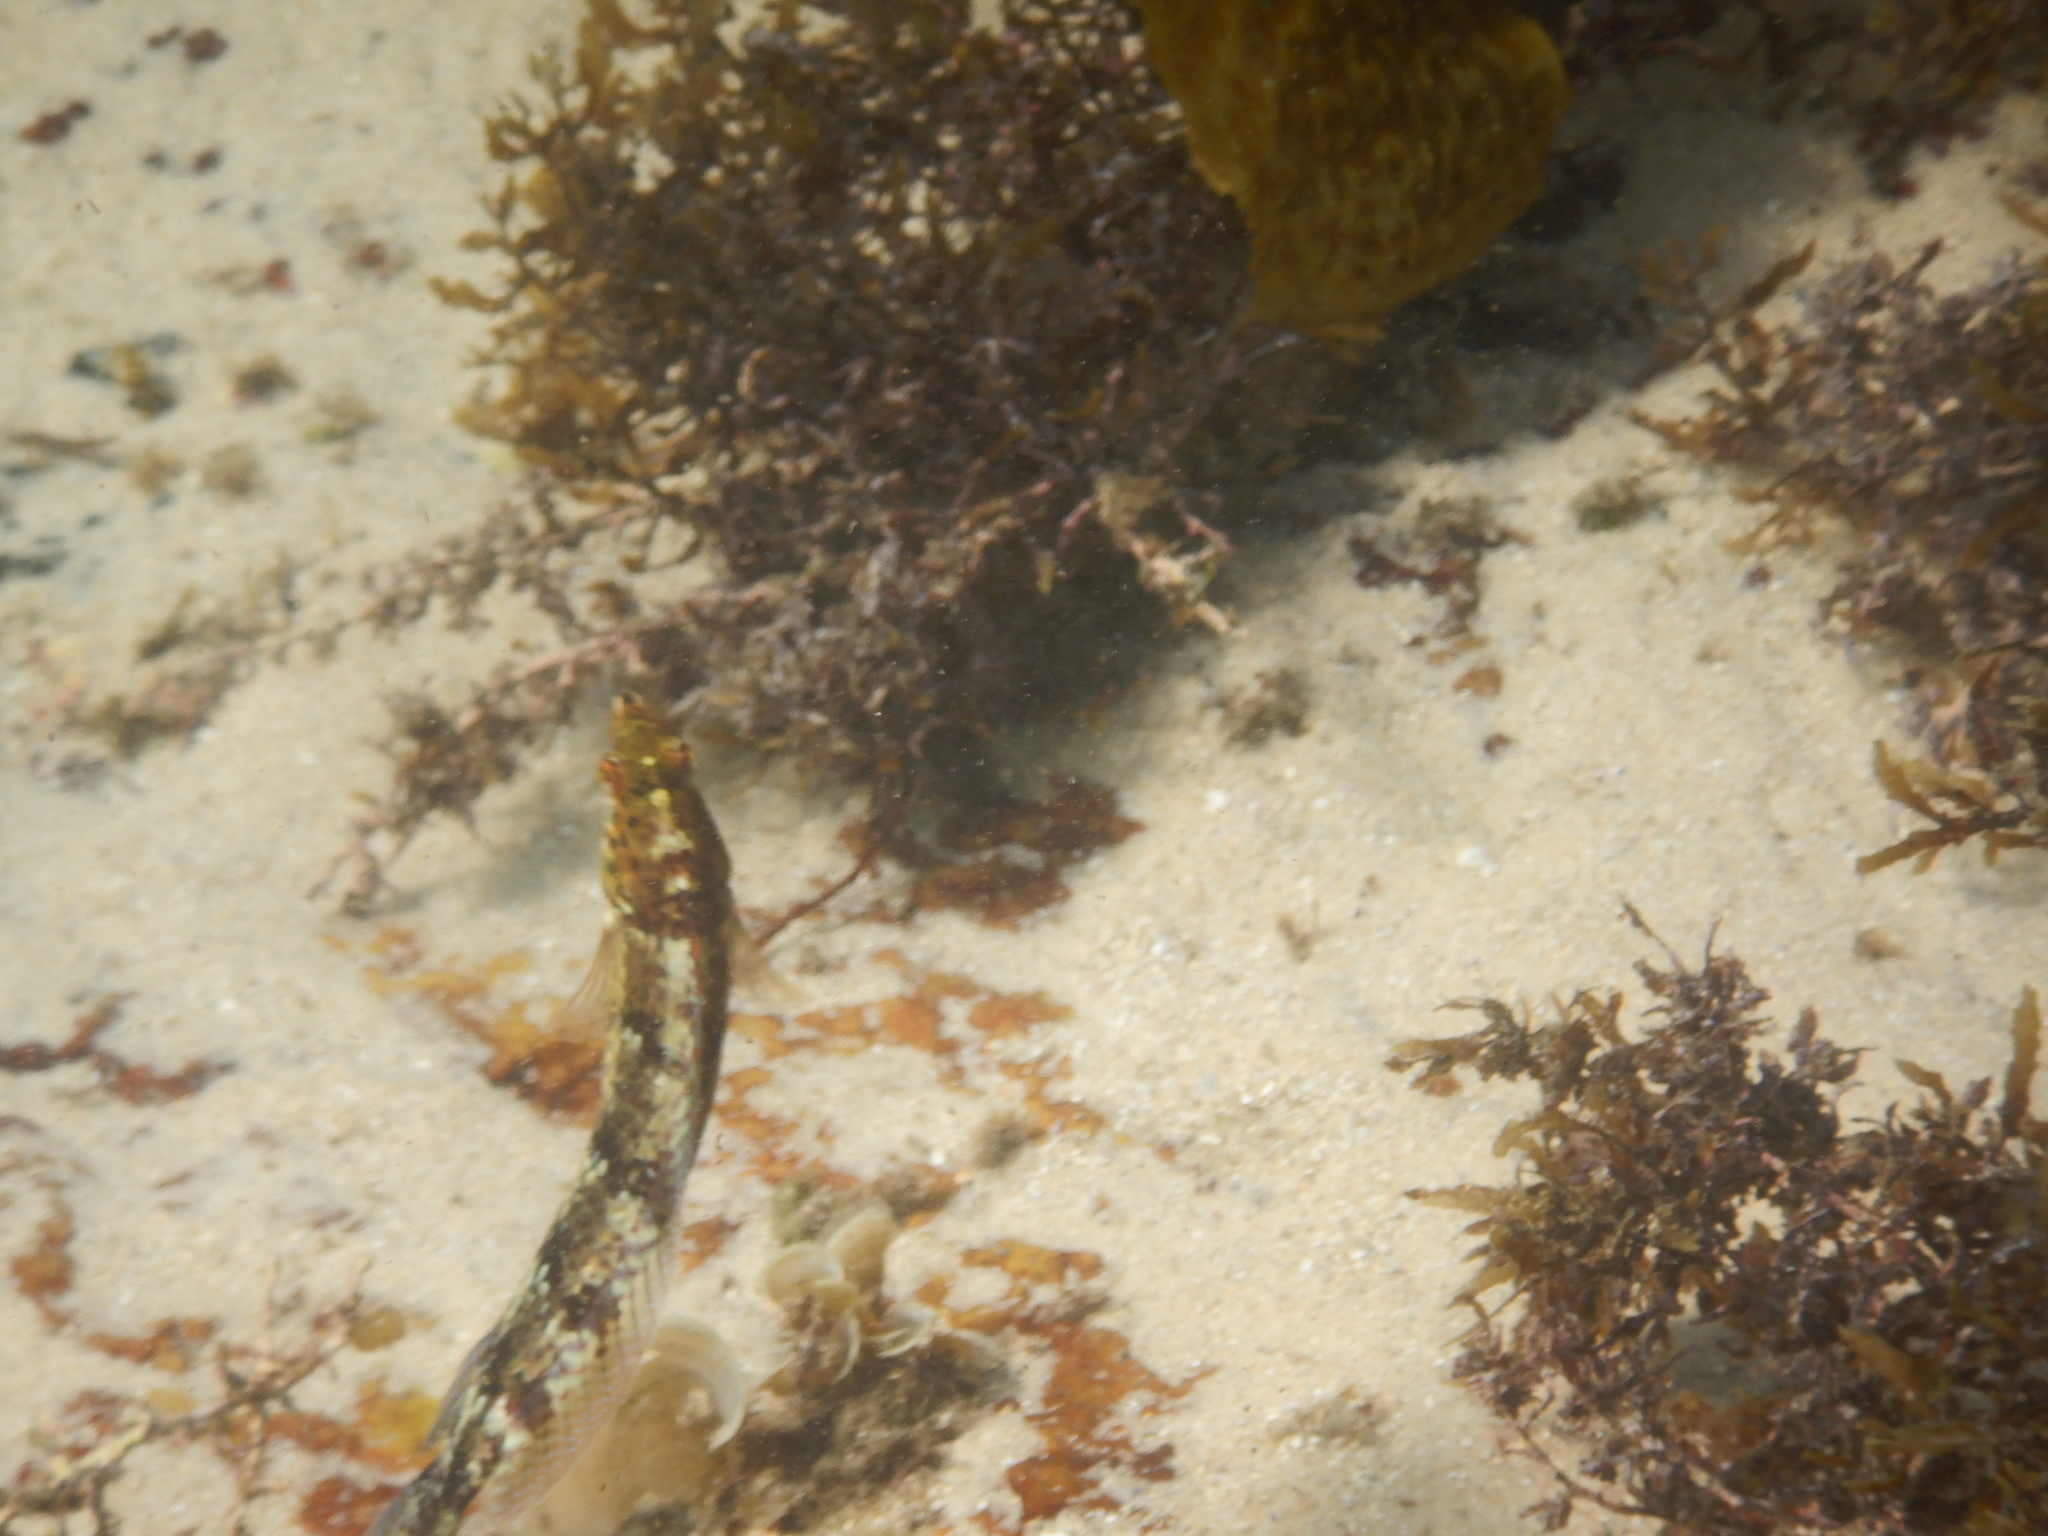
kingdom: Animalia
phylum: Chordata
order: Perciformes
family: Labridae
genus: Eupetrichthys
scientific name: Eupetrichthys angustipes
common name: Snake-skin wrasse
